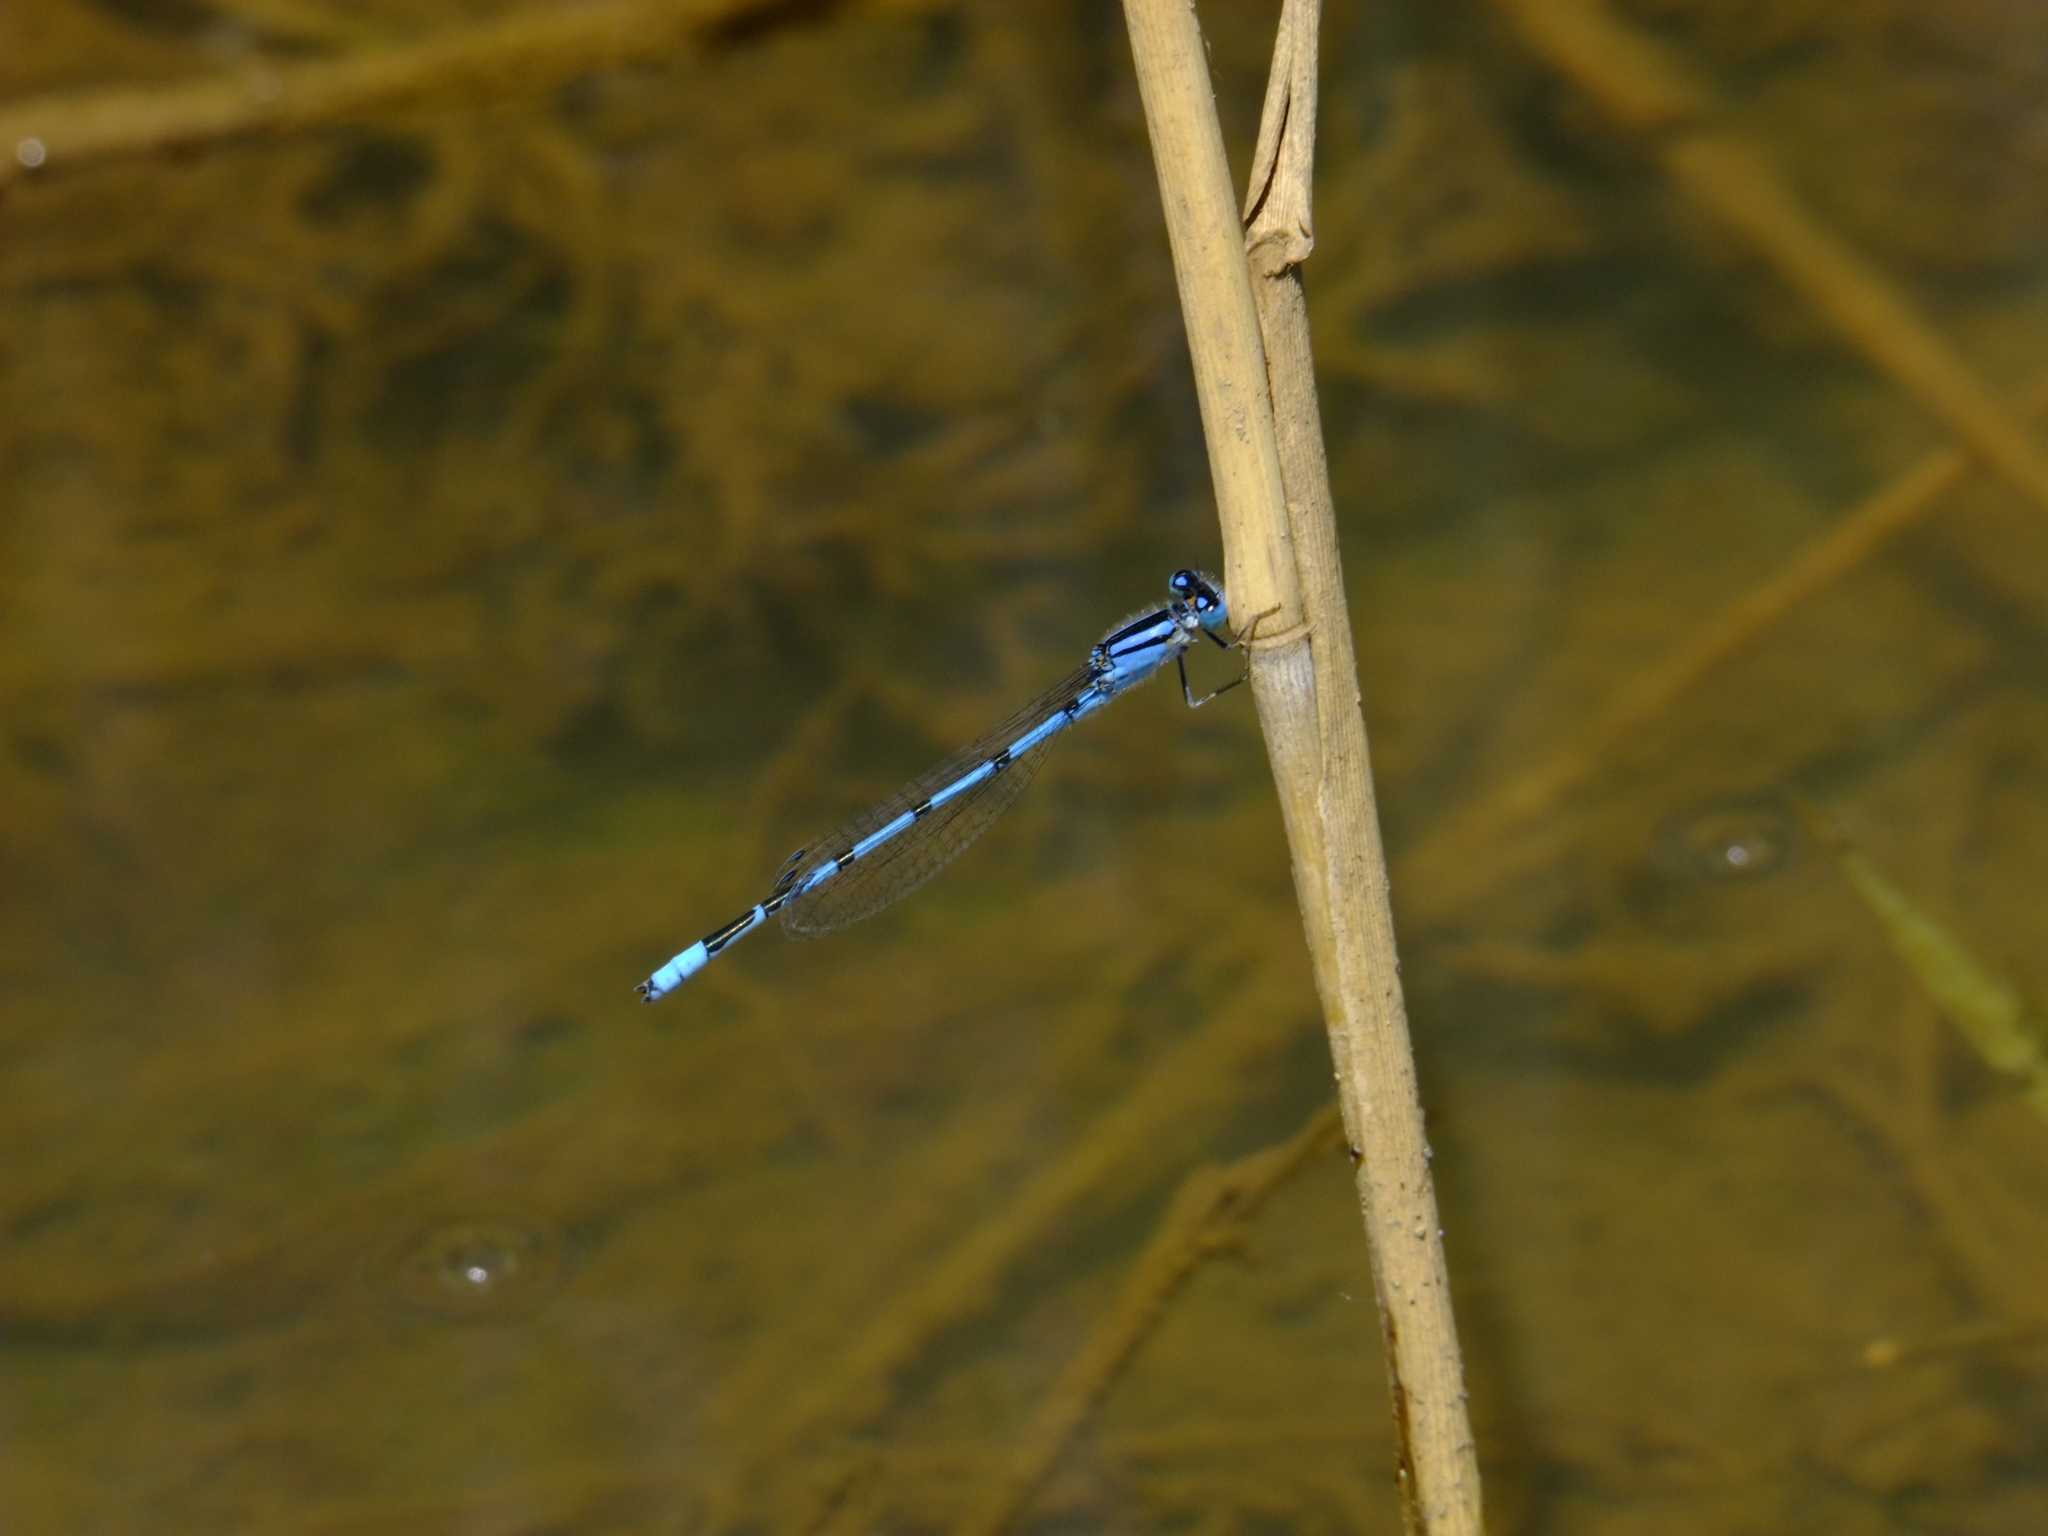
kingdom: Animalia
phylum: Arthropoda
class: Insecta
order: Odonata
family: Coenagrionidae
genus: Enallagma
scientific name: Enallagma civile
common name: Damselfly
